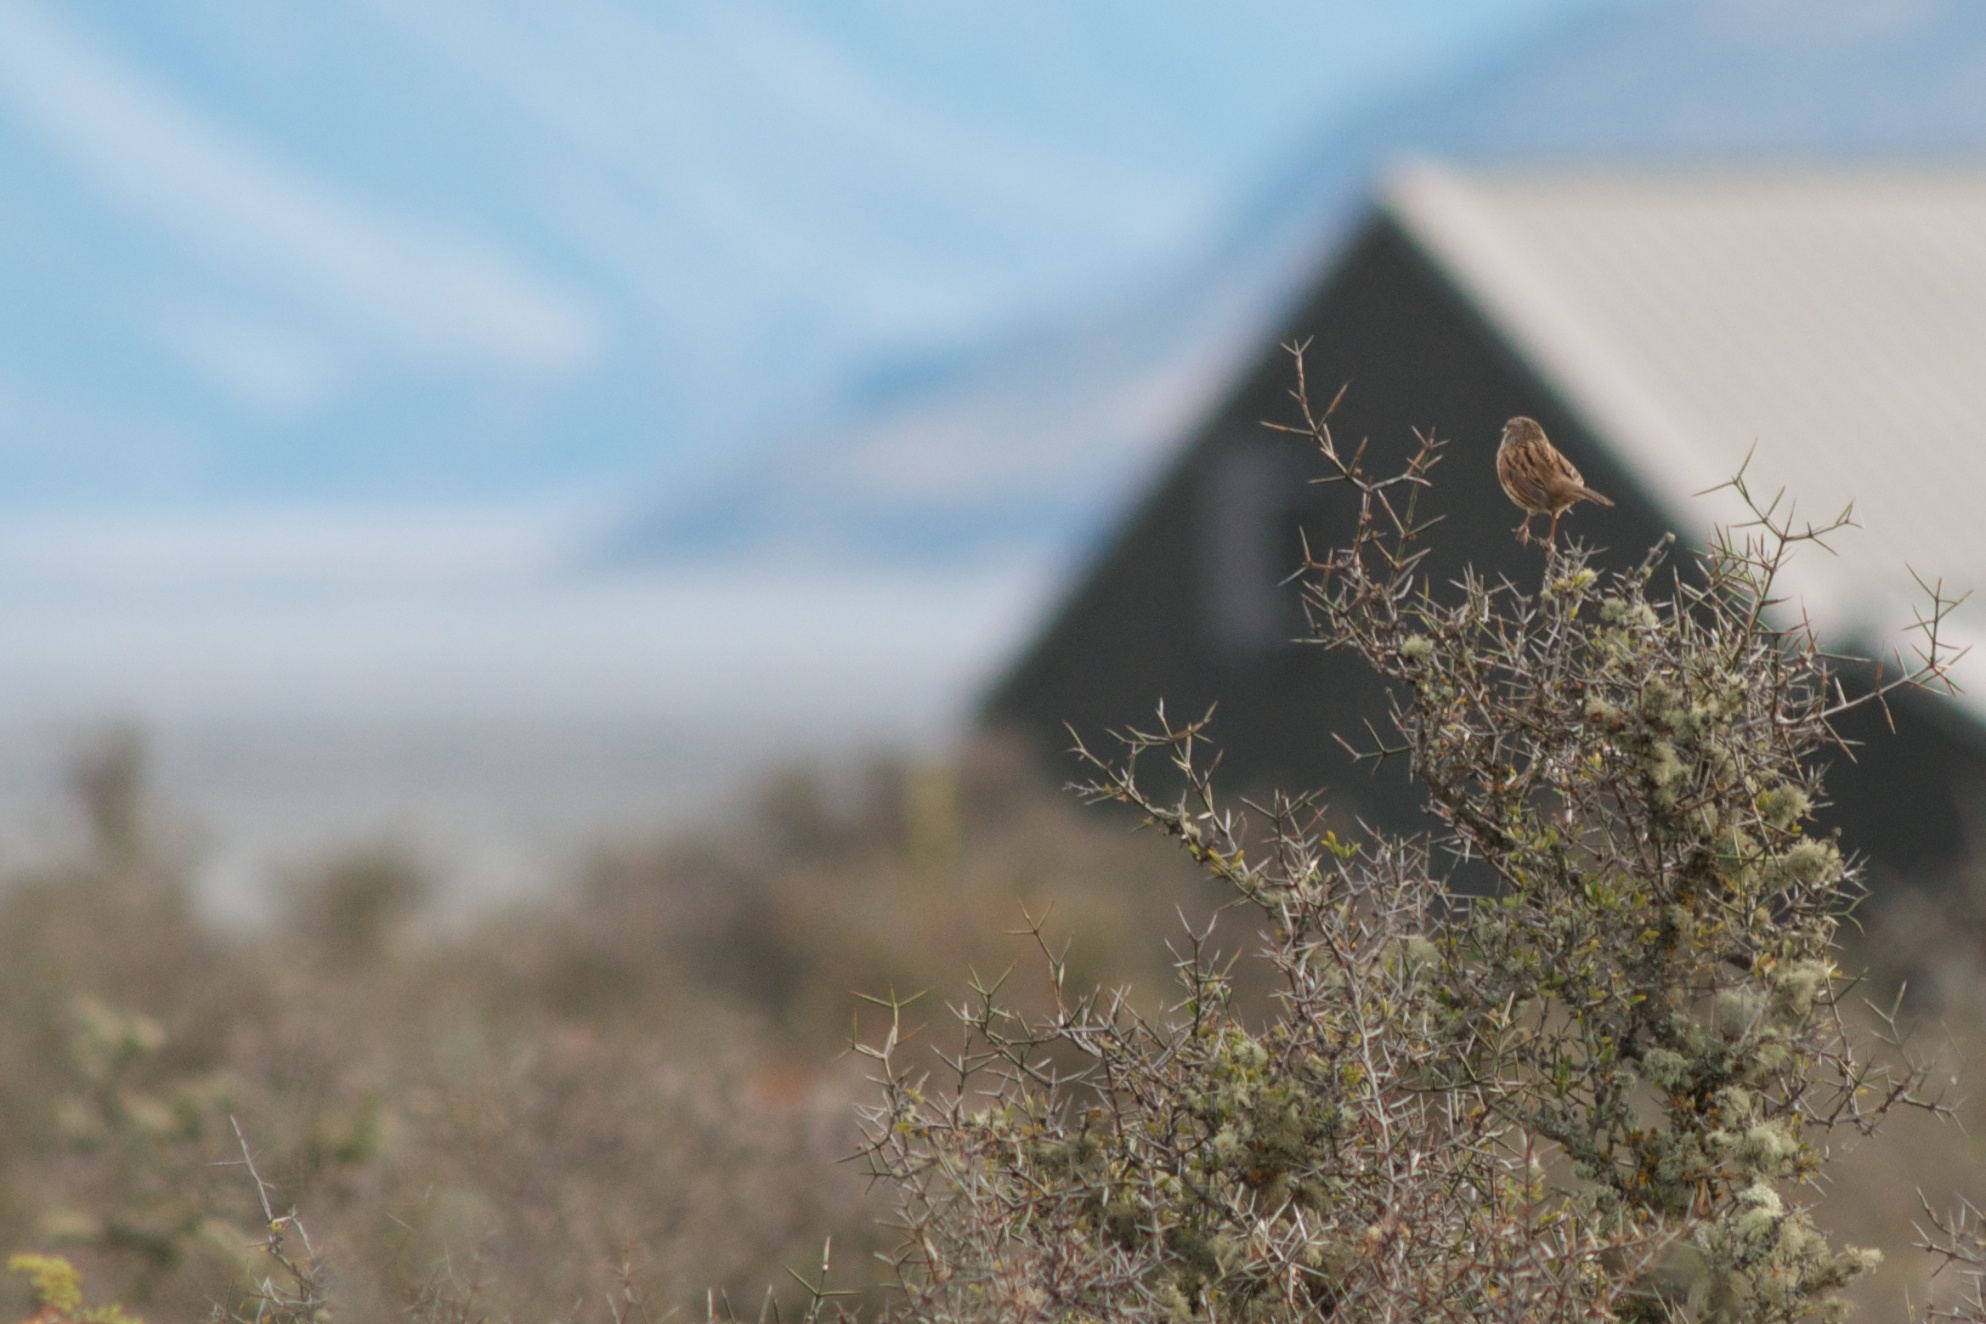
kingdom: Animalia
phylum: Chordata
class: Aves
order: Passeriformes
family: Prunellidae
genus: Prunella
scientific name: Prunella modularis
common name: Dunnock
